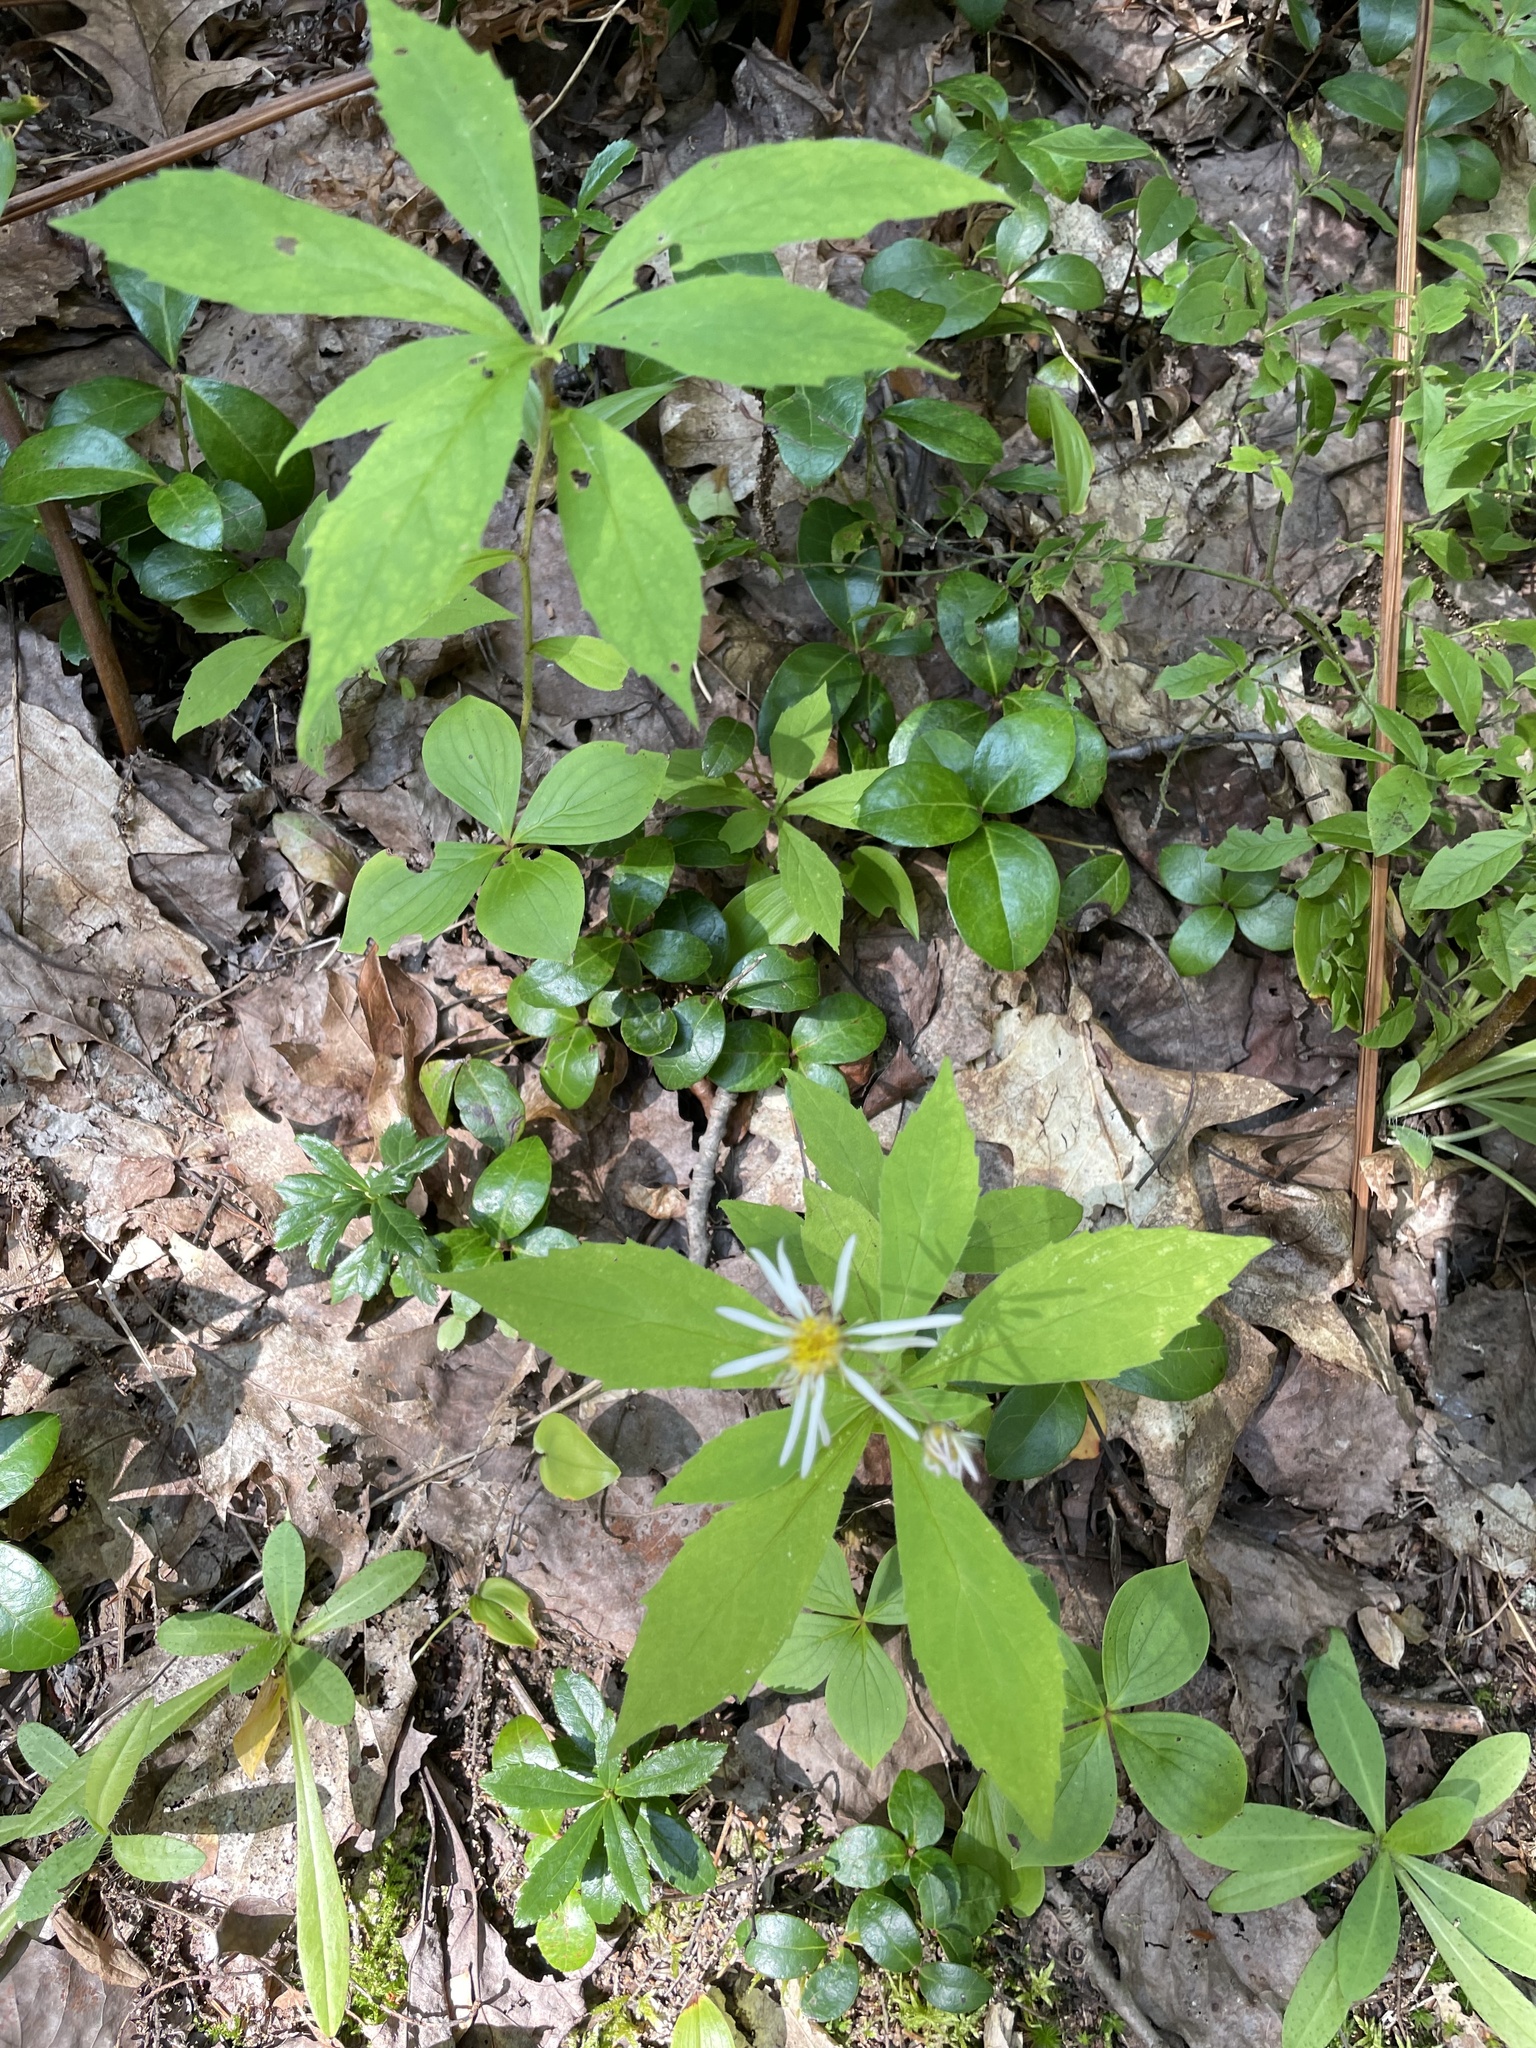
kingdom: Plantae
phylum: Tracheophyta
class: Magnoliopsida
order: Asterales
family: Asteraceae
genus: Oclemena
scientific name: Oclemena acuminata
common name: Mountain aster
